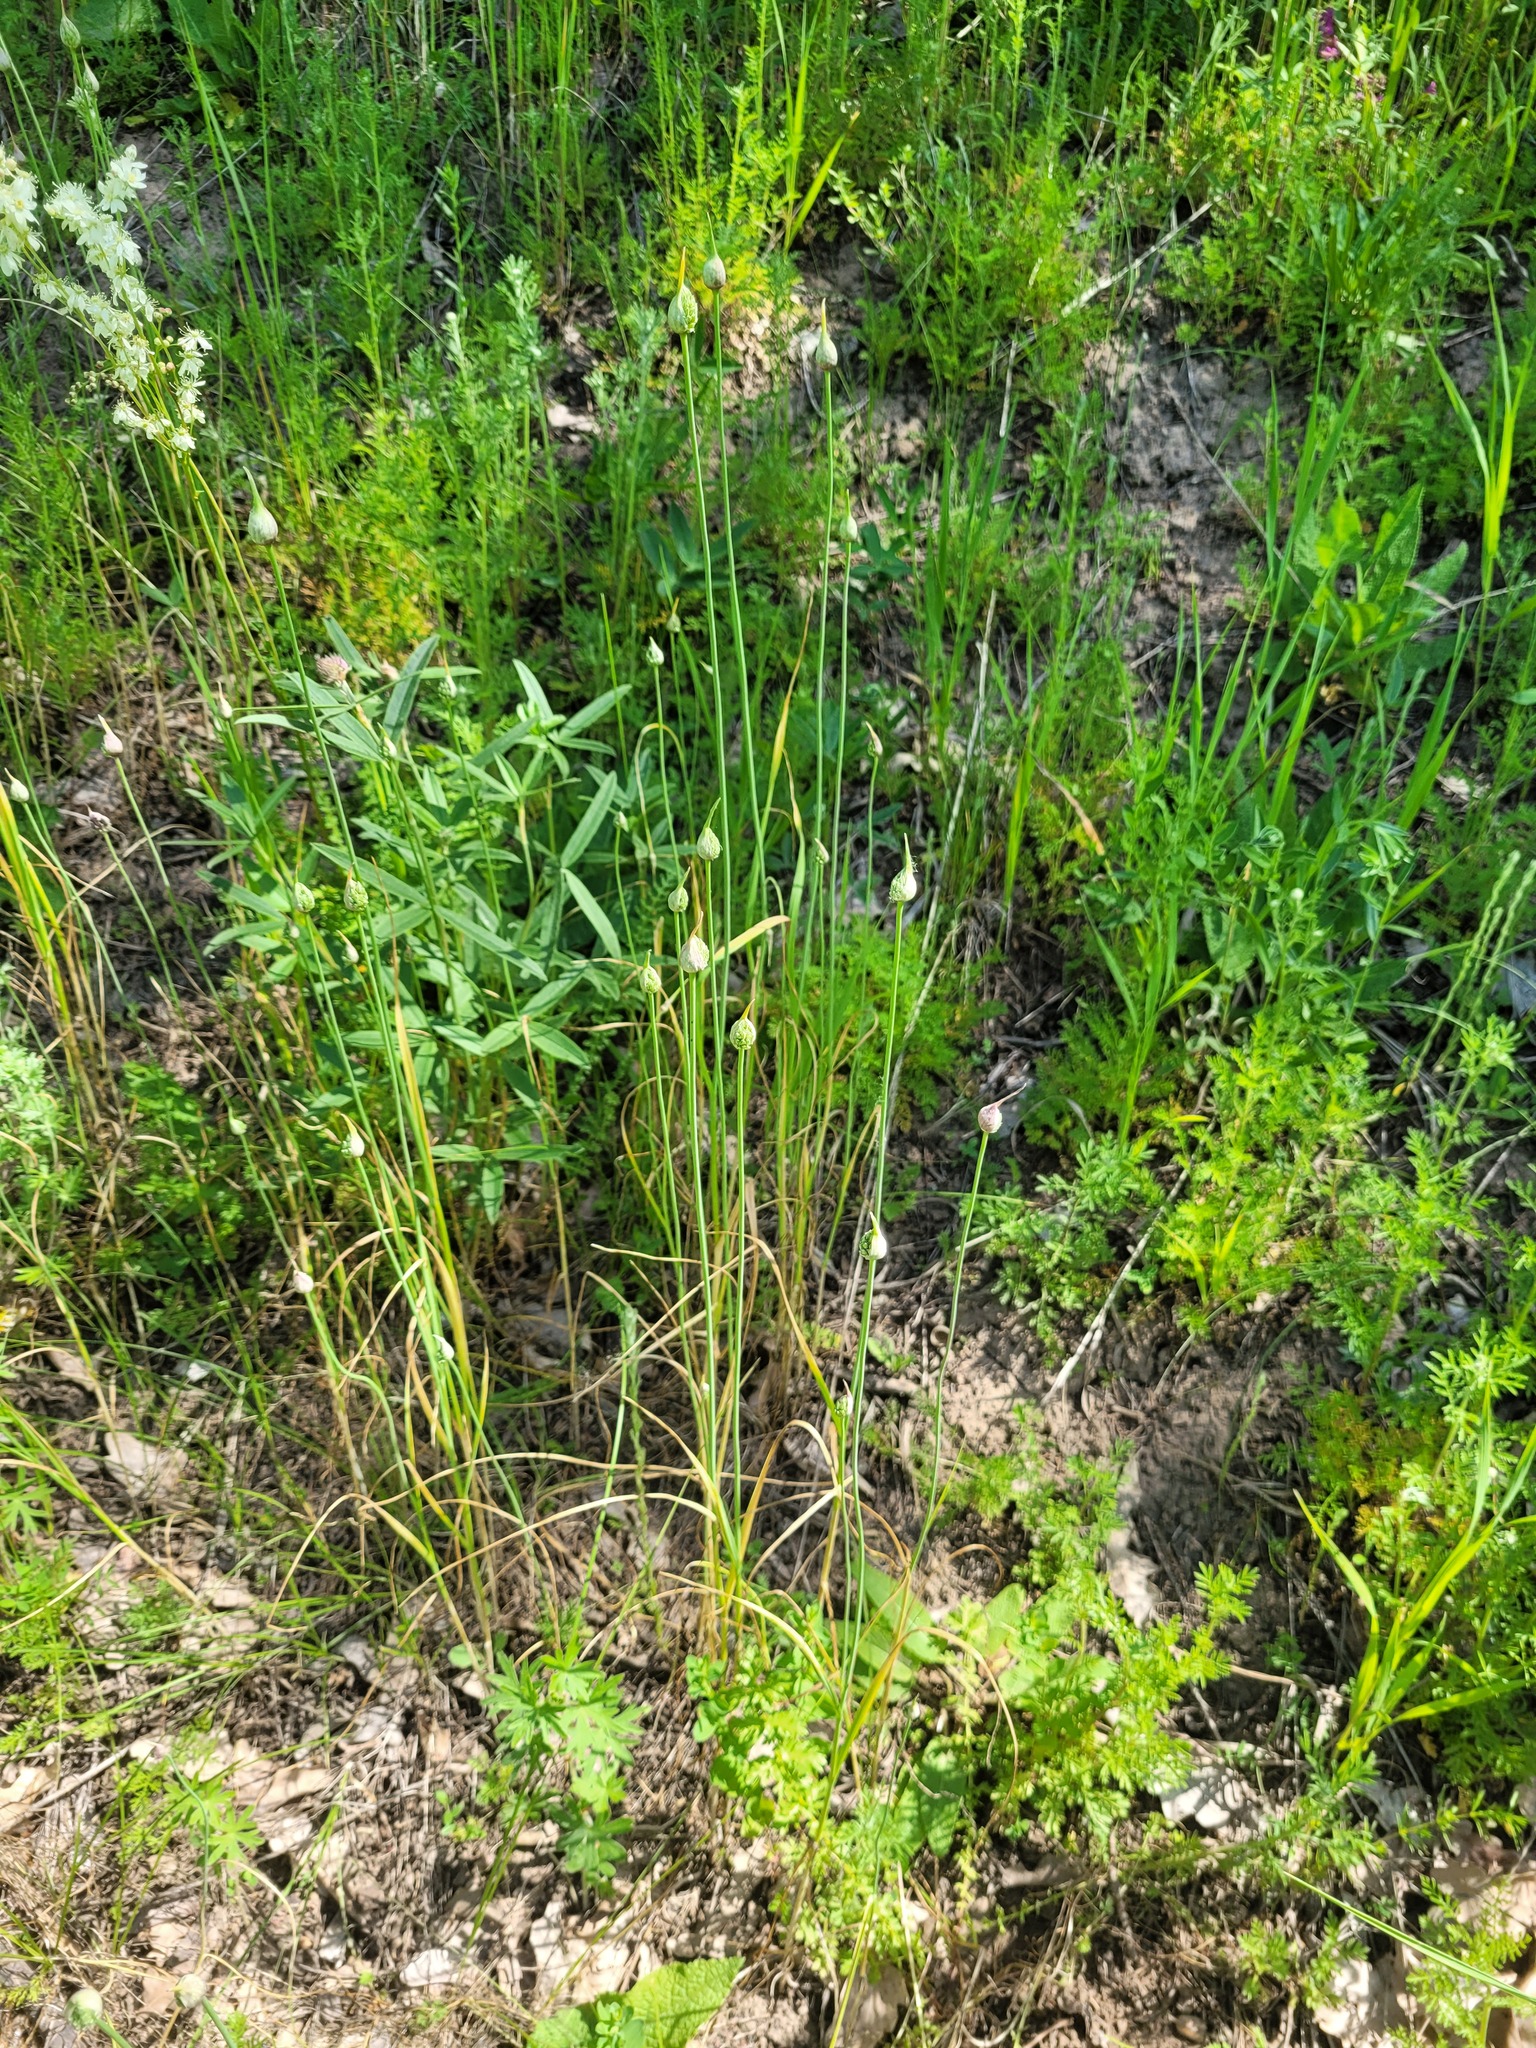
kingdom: Plantae
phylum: Tracheophyta
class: Liliopsida
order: Asparagales
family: Amaryllidaceae
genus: Allium
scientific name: Allium rotundum
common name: Sand leek
